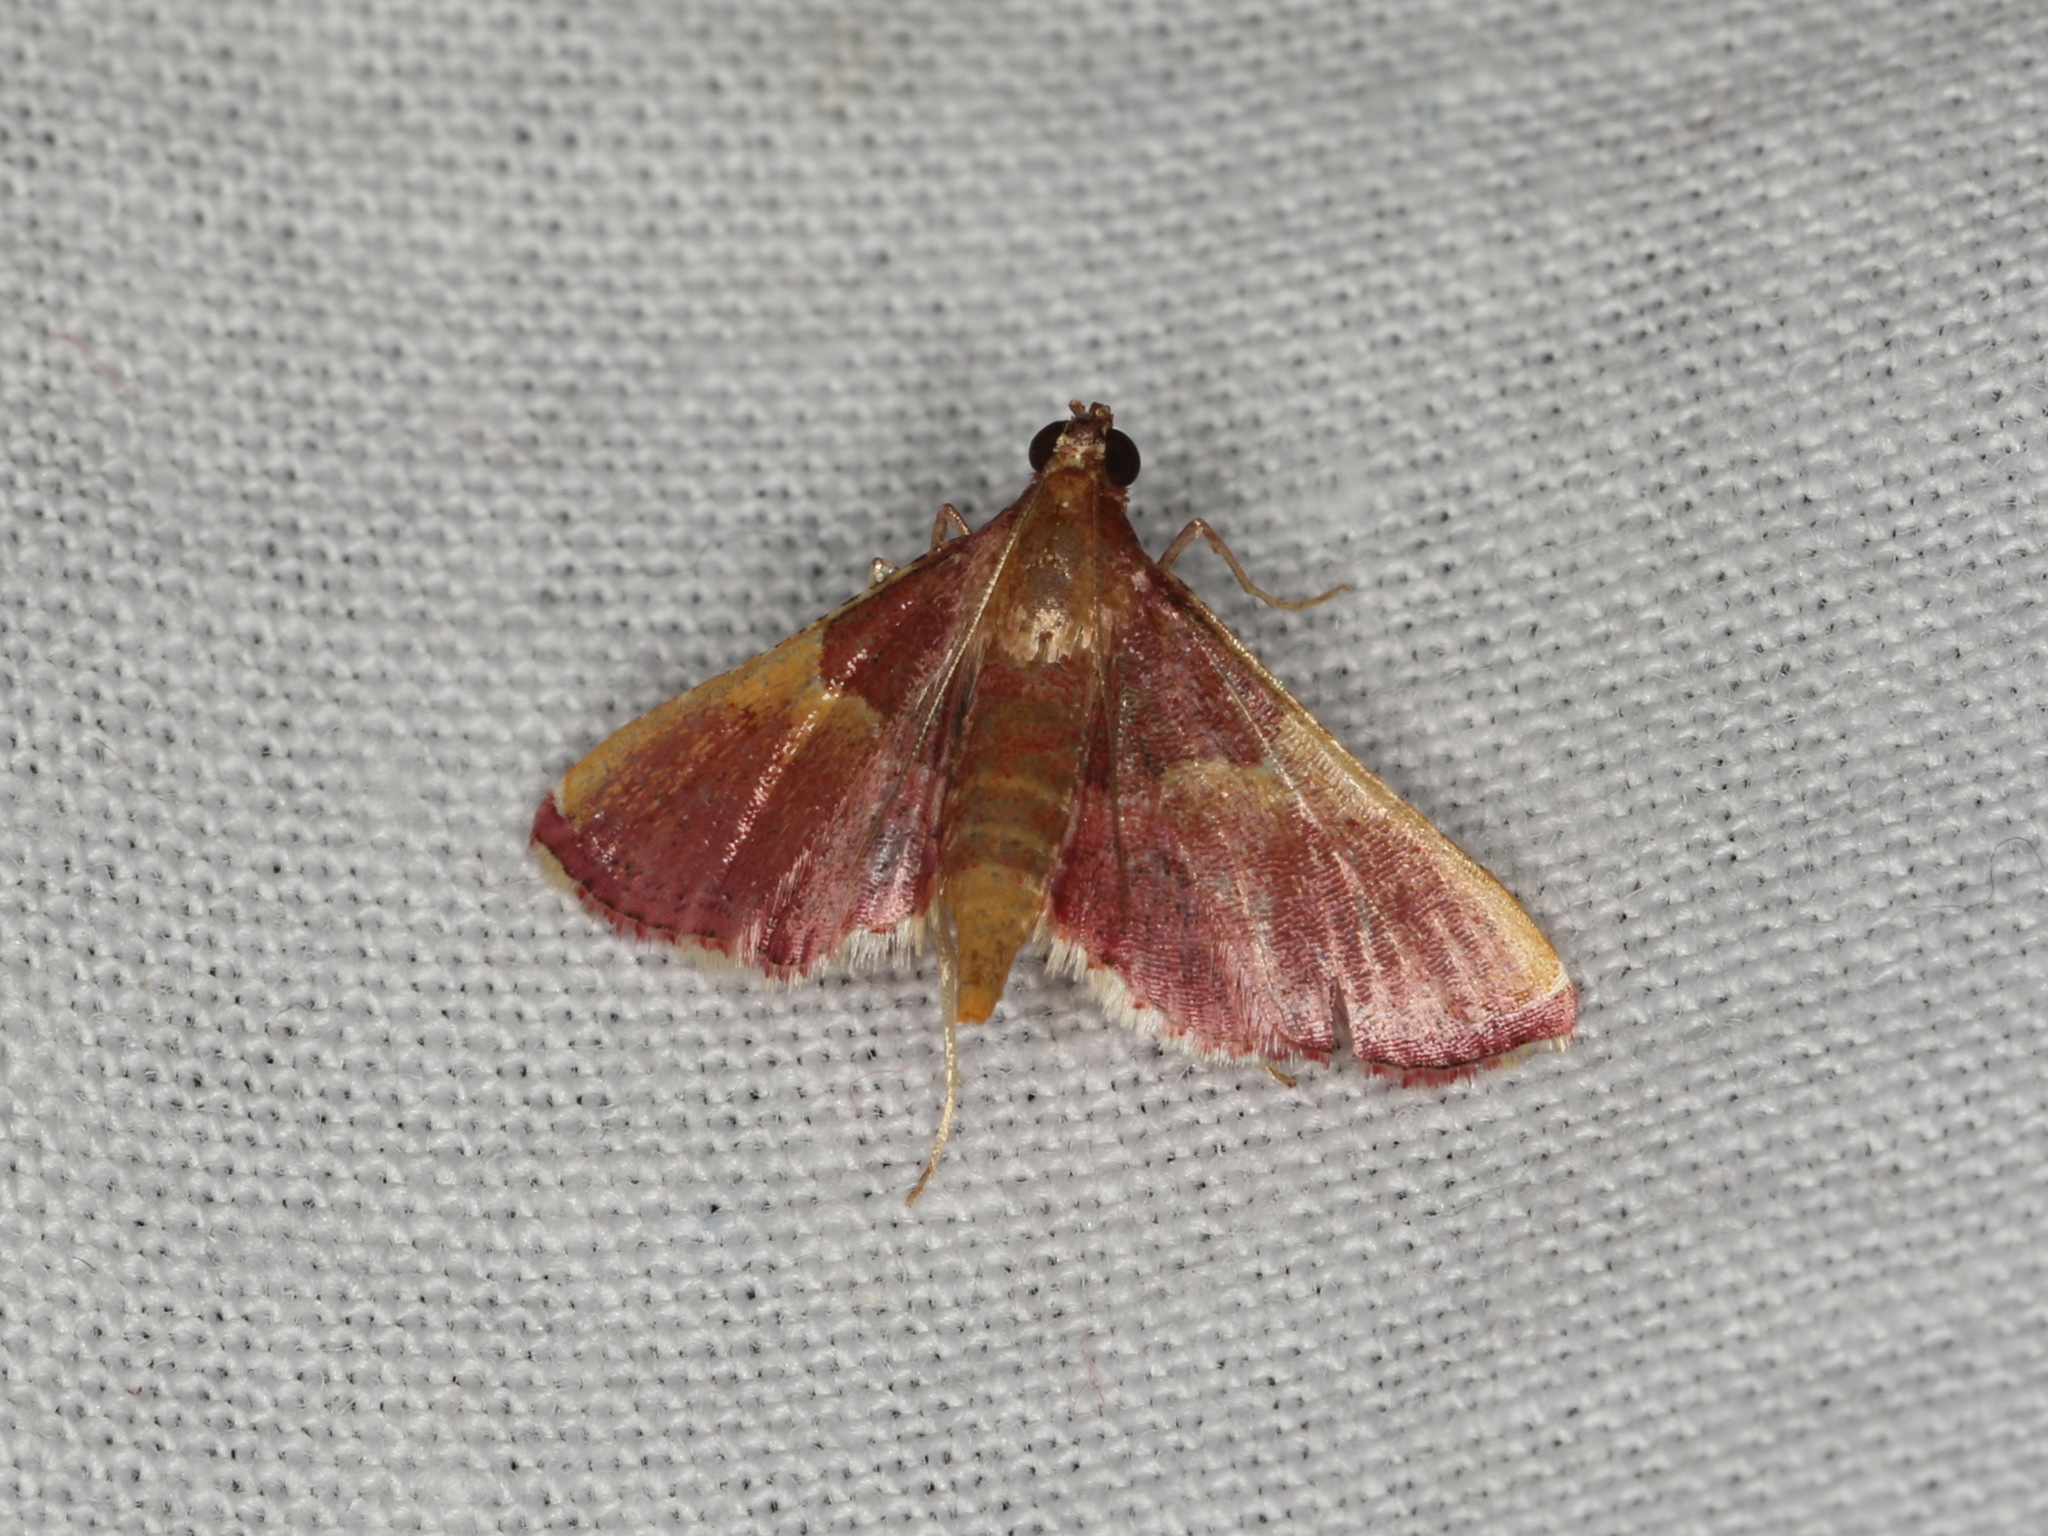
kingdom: Animalia
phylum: Arthropoda
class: Insecta
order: Lepidoptera
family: Pyralidae
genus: Endotricha
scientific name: Endotricha mesenterialis
